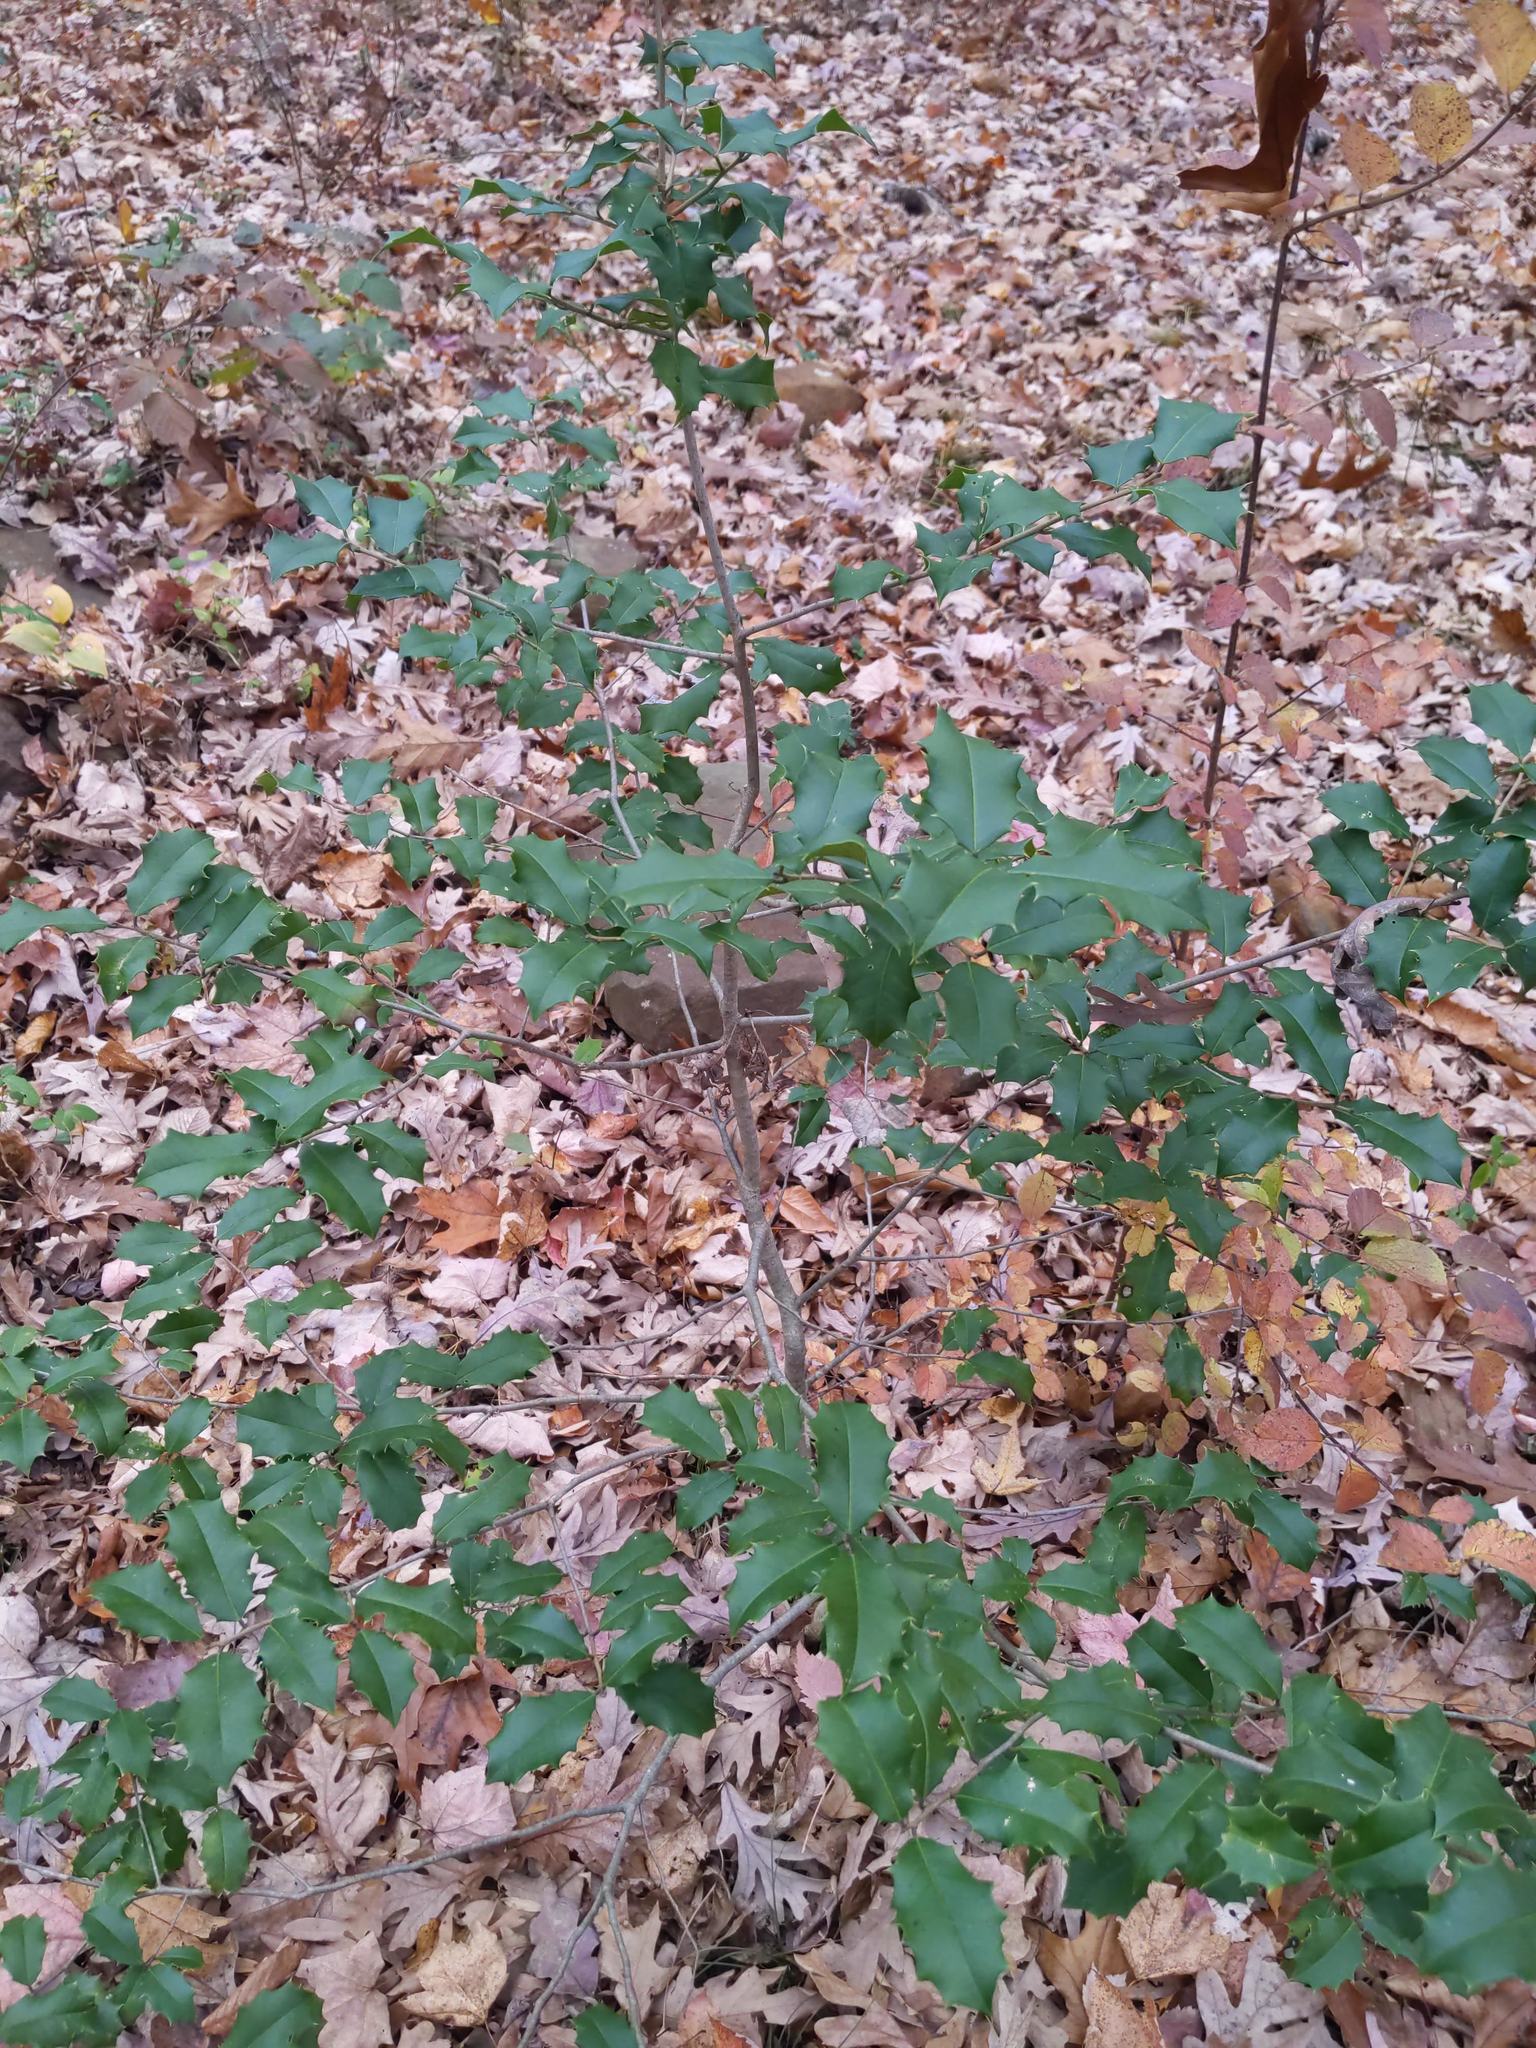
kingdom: Plantae
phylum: Tracheophyta
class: Magnoliopsida
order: Aquifoliales
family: Aquifoliaceae
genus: Ilex
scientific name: Ilex opaca
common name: American holly
